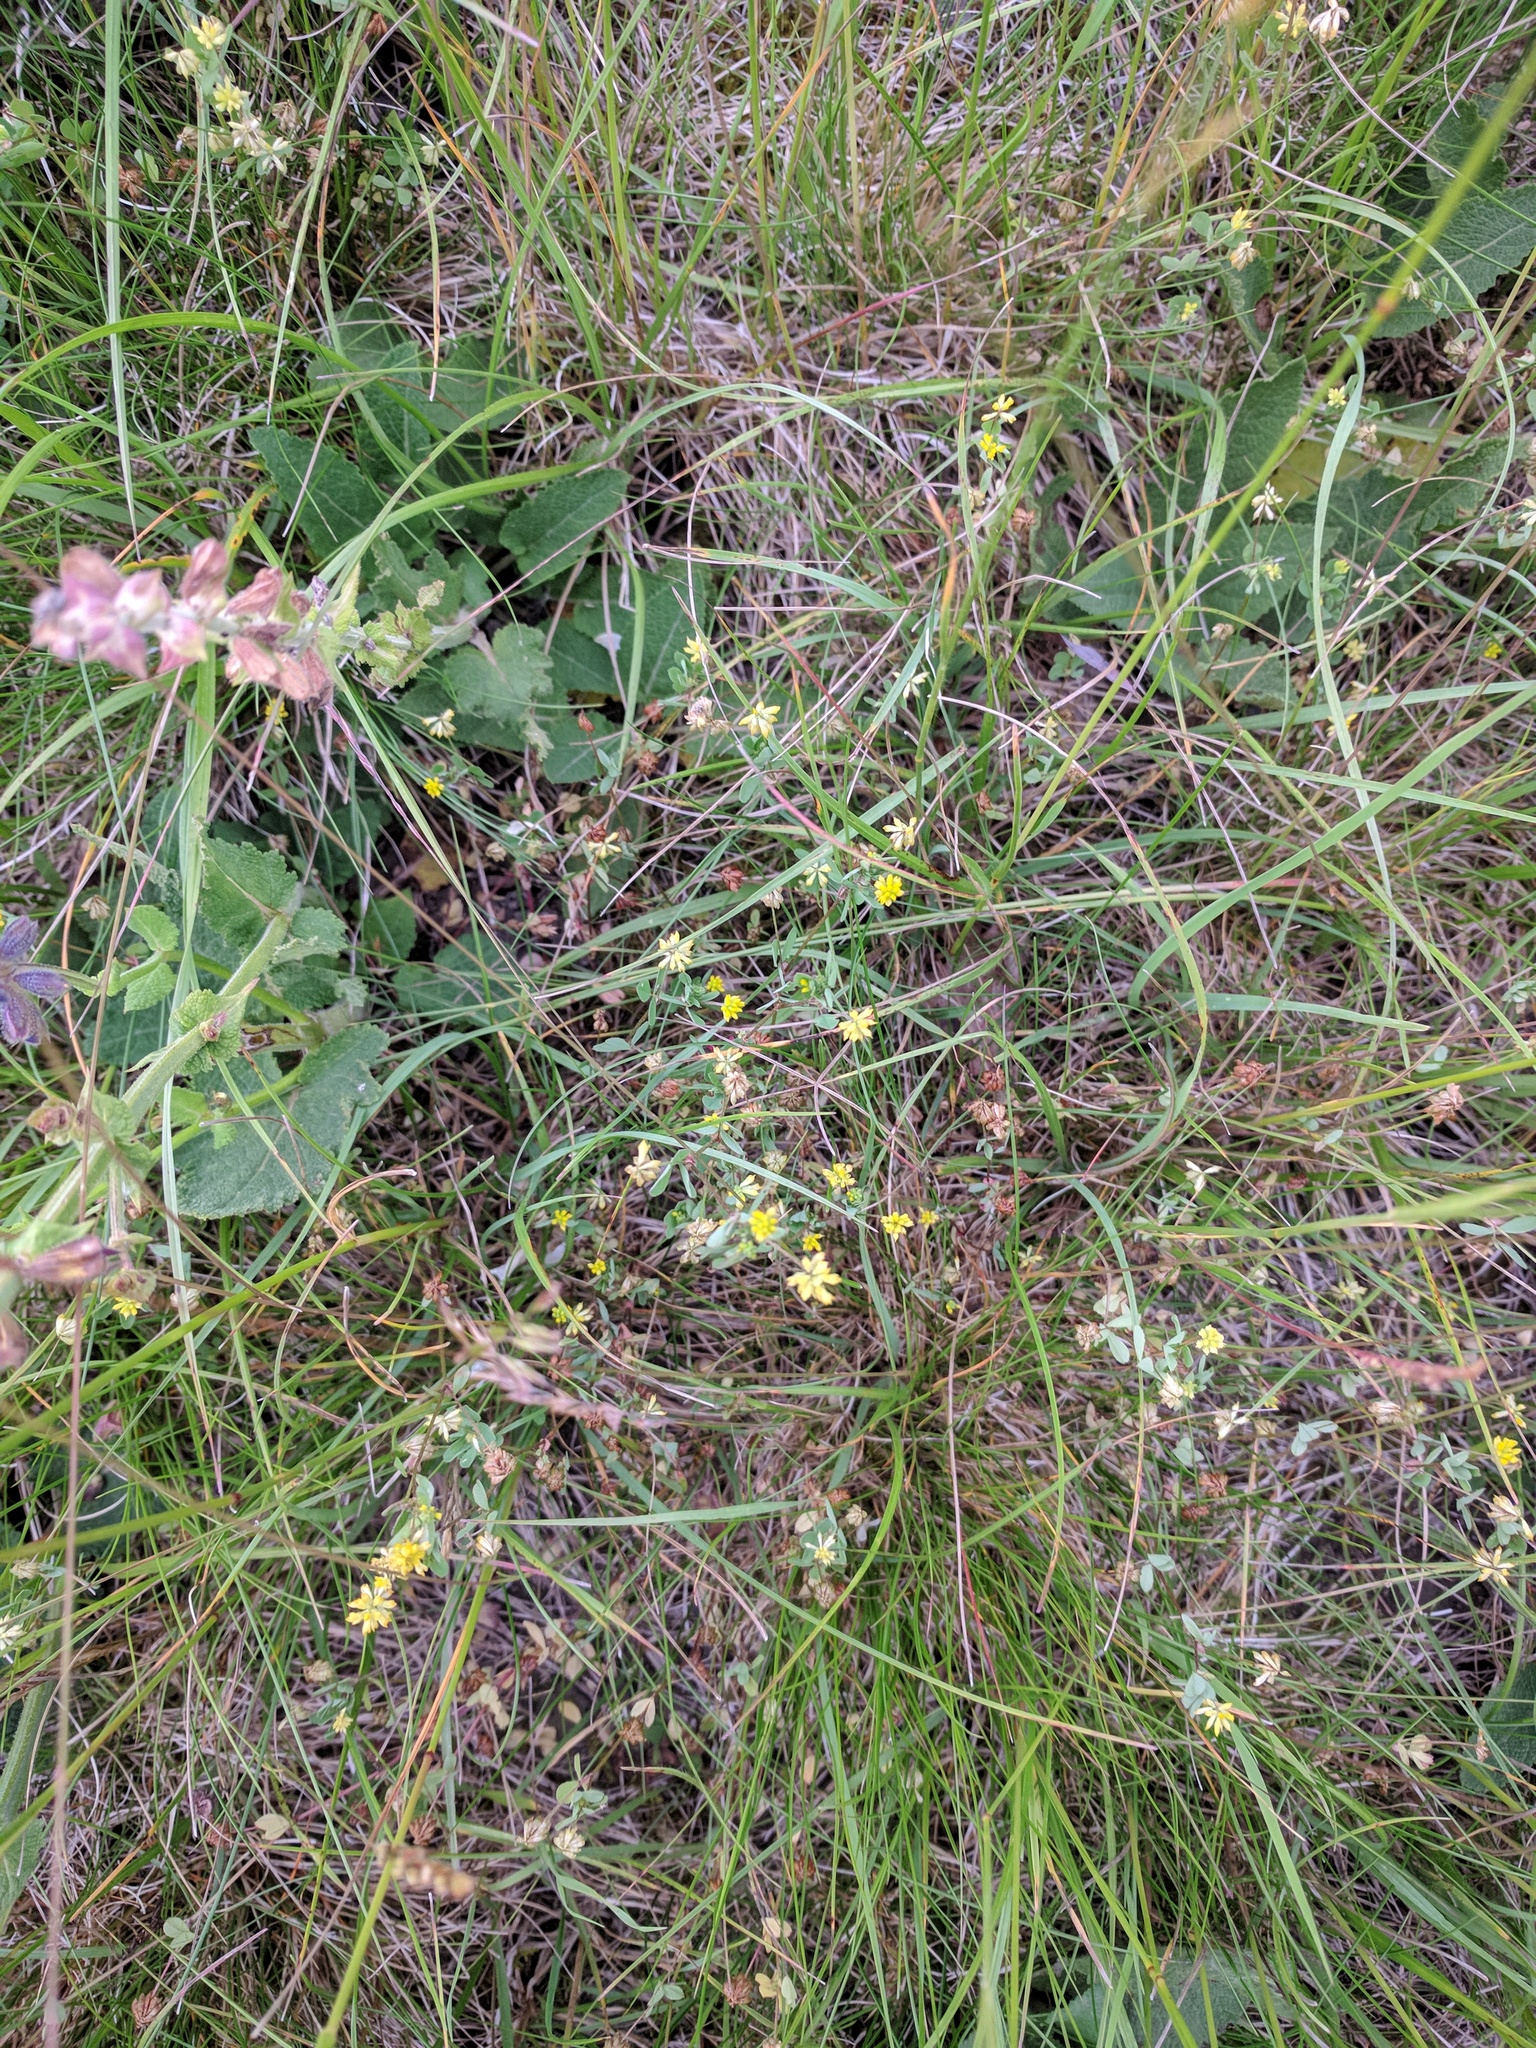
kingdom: Plantae
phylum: Tracheophyta
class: Magnoliopsida
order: Fabales
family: Fabaceae
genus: Trifolium
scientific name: Trifolium dubium
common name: Suckling clover
